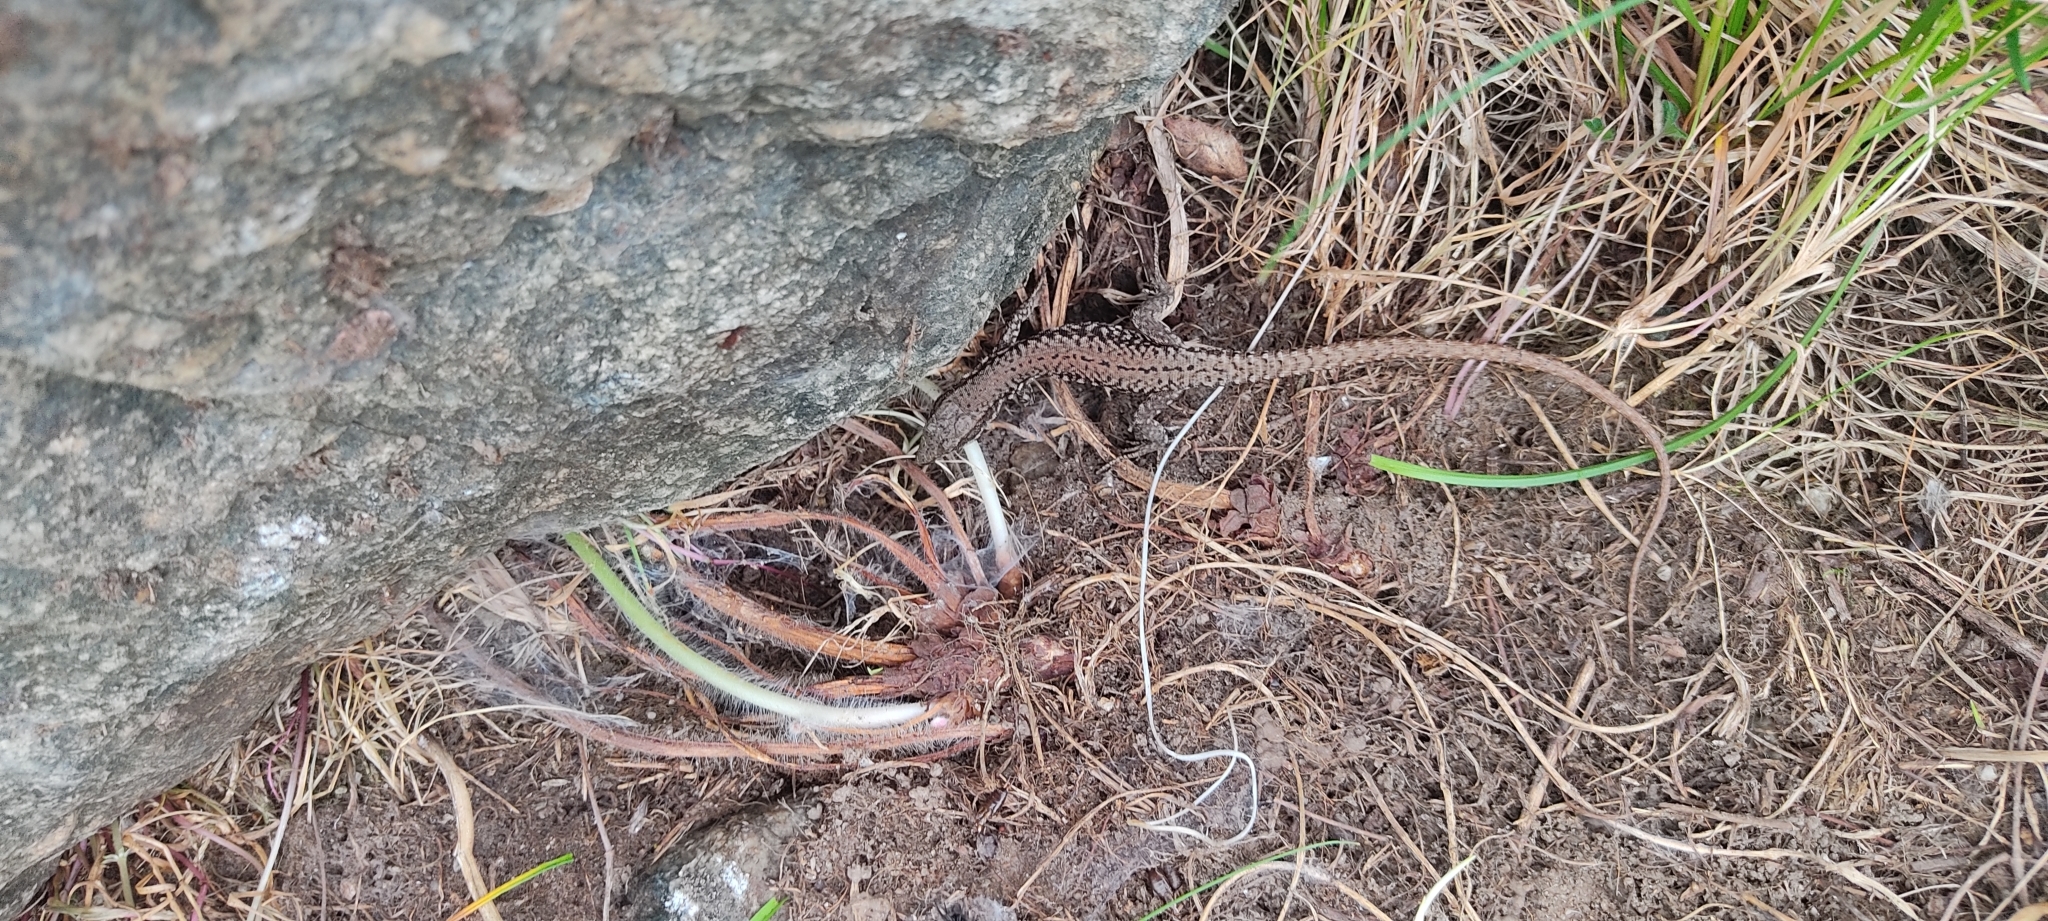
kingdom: Animalia
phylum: Chordata
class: Squamata
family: Lacertidae
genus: Podarcis
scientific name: Podarcis muralis
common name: Common wall lizard
